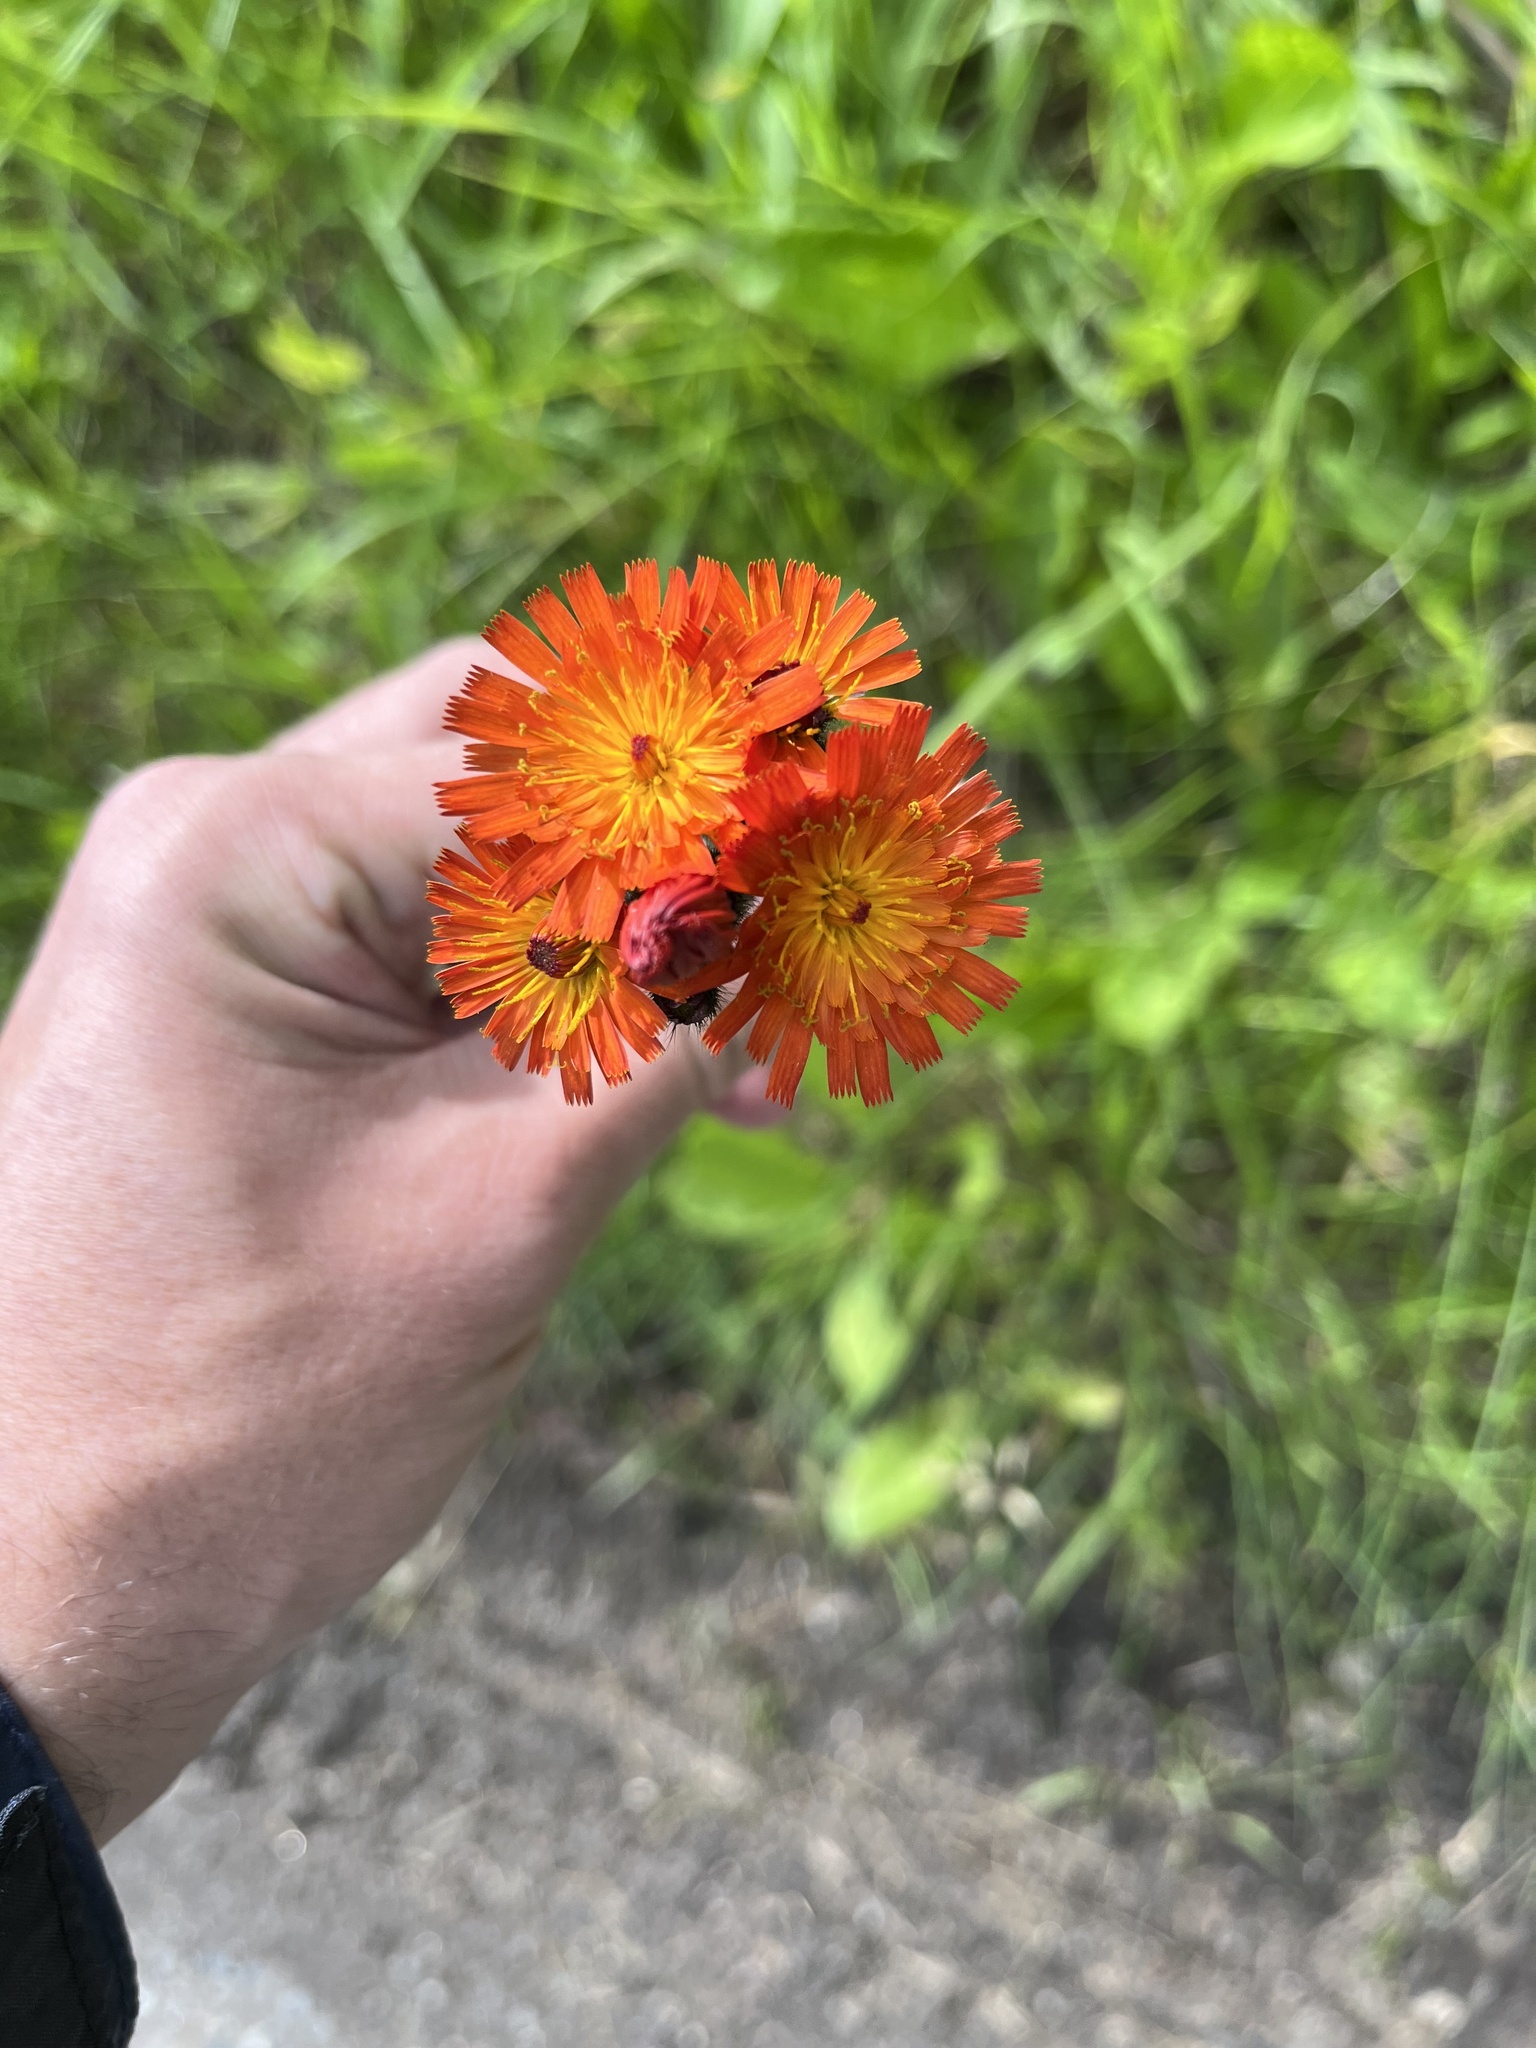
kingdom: Plantae
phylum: Tracheophyta
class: Magnoliopsida
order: Asterales
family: Asteraceae
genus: Pilosella
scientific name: Pilosella aurantiaca
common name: Fox-and-cubs
